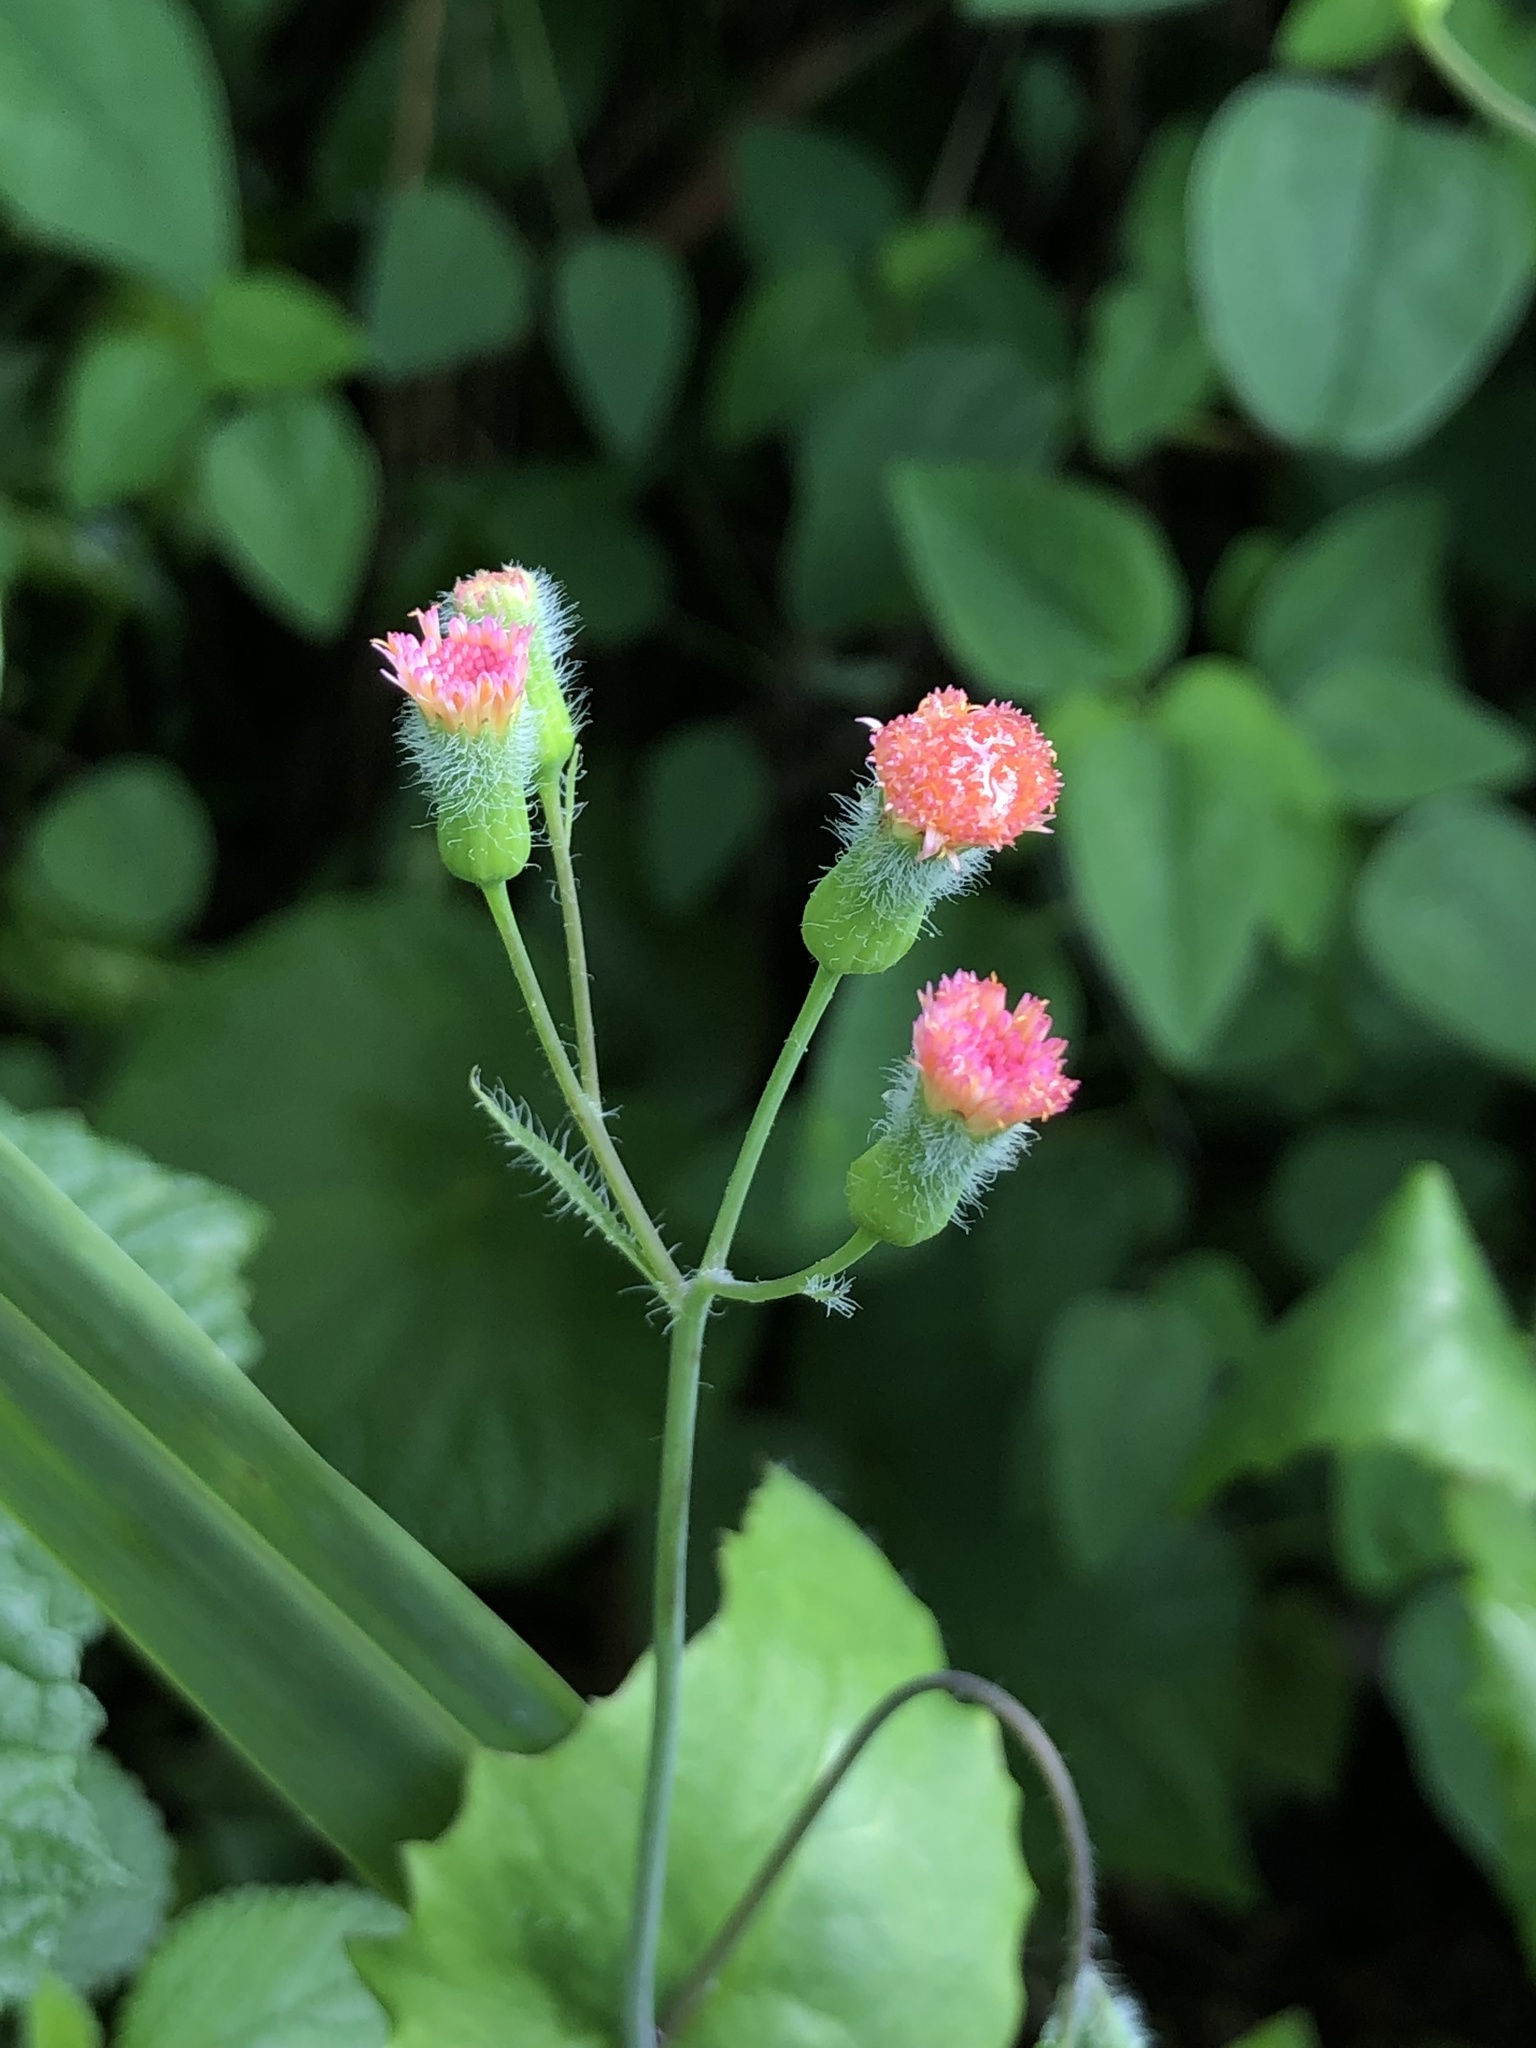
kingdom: Plantae
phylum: Tracheophyta
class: Magnoliopsida
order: Asterales
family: Asteraceae
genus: Emilia
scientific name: Emilia fosbergii
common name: Florida tasselflower
